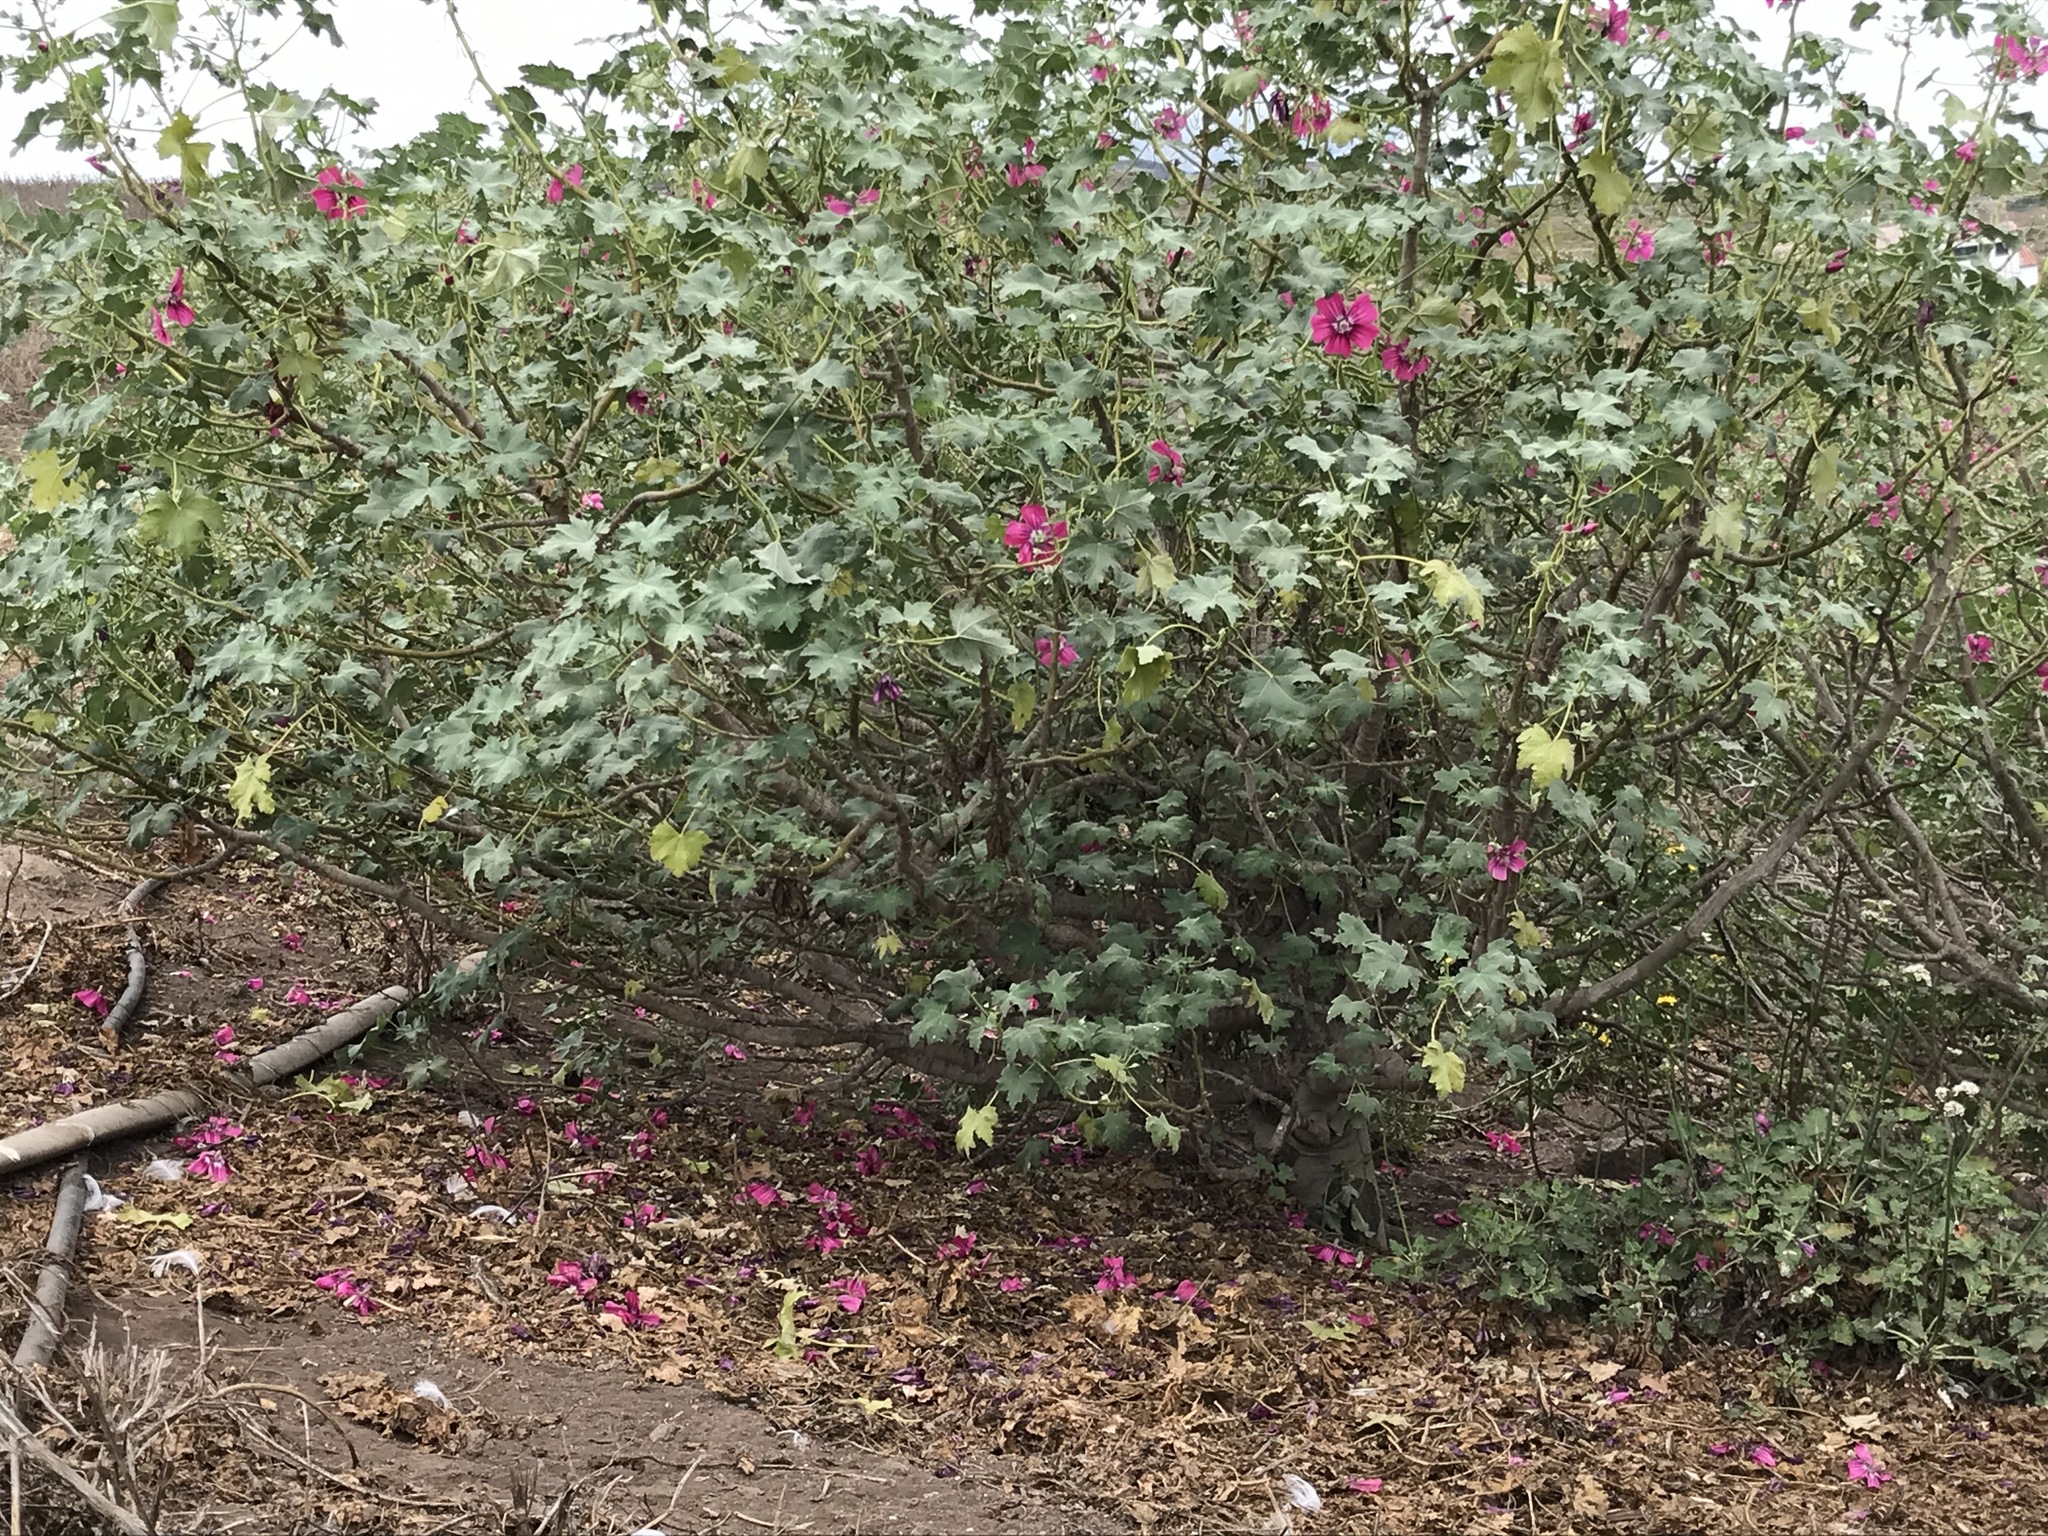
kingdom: Plantae
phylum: Tracheophyta
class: Magnoliopsida
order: Malvales
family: Malvaceae
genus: Malva
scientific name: Malva assurgentiflora
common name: Island mallow
